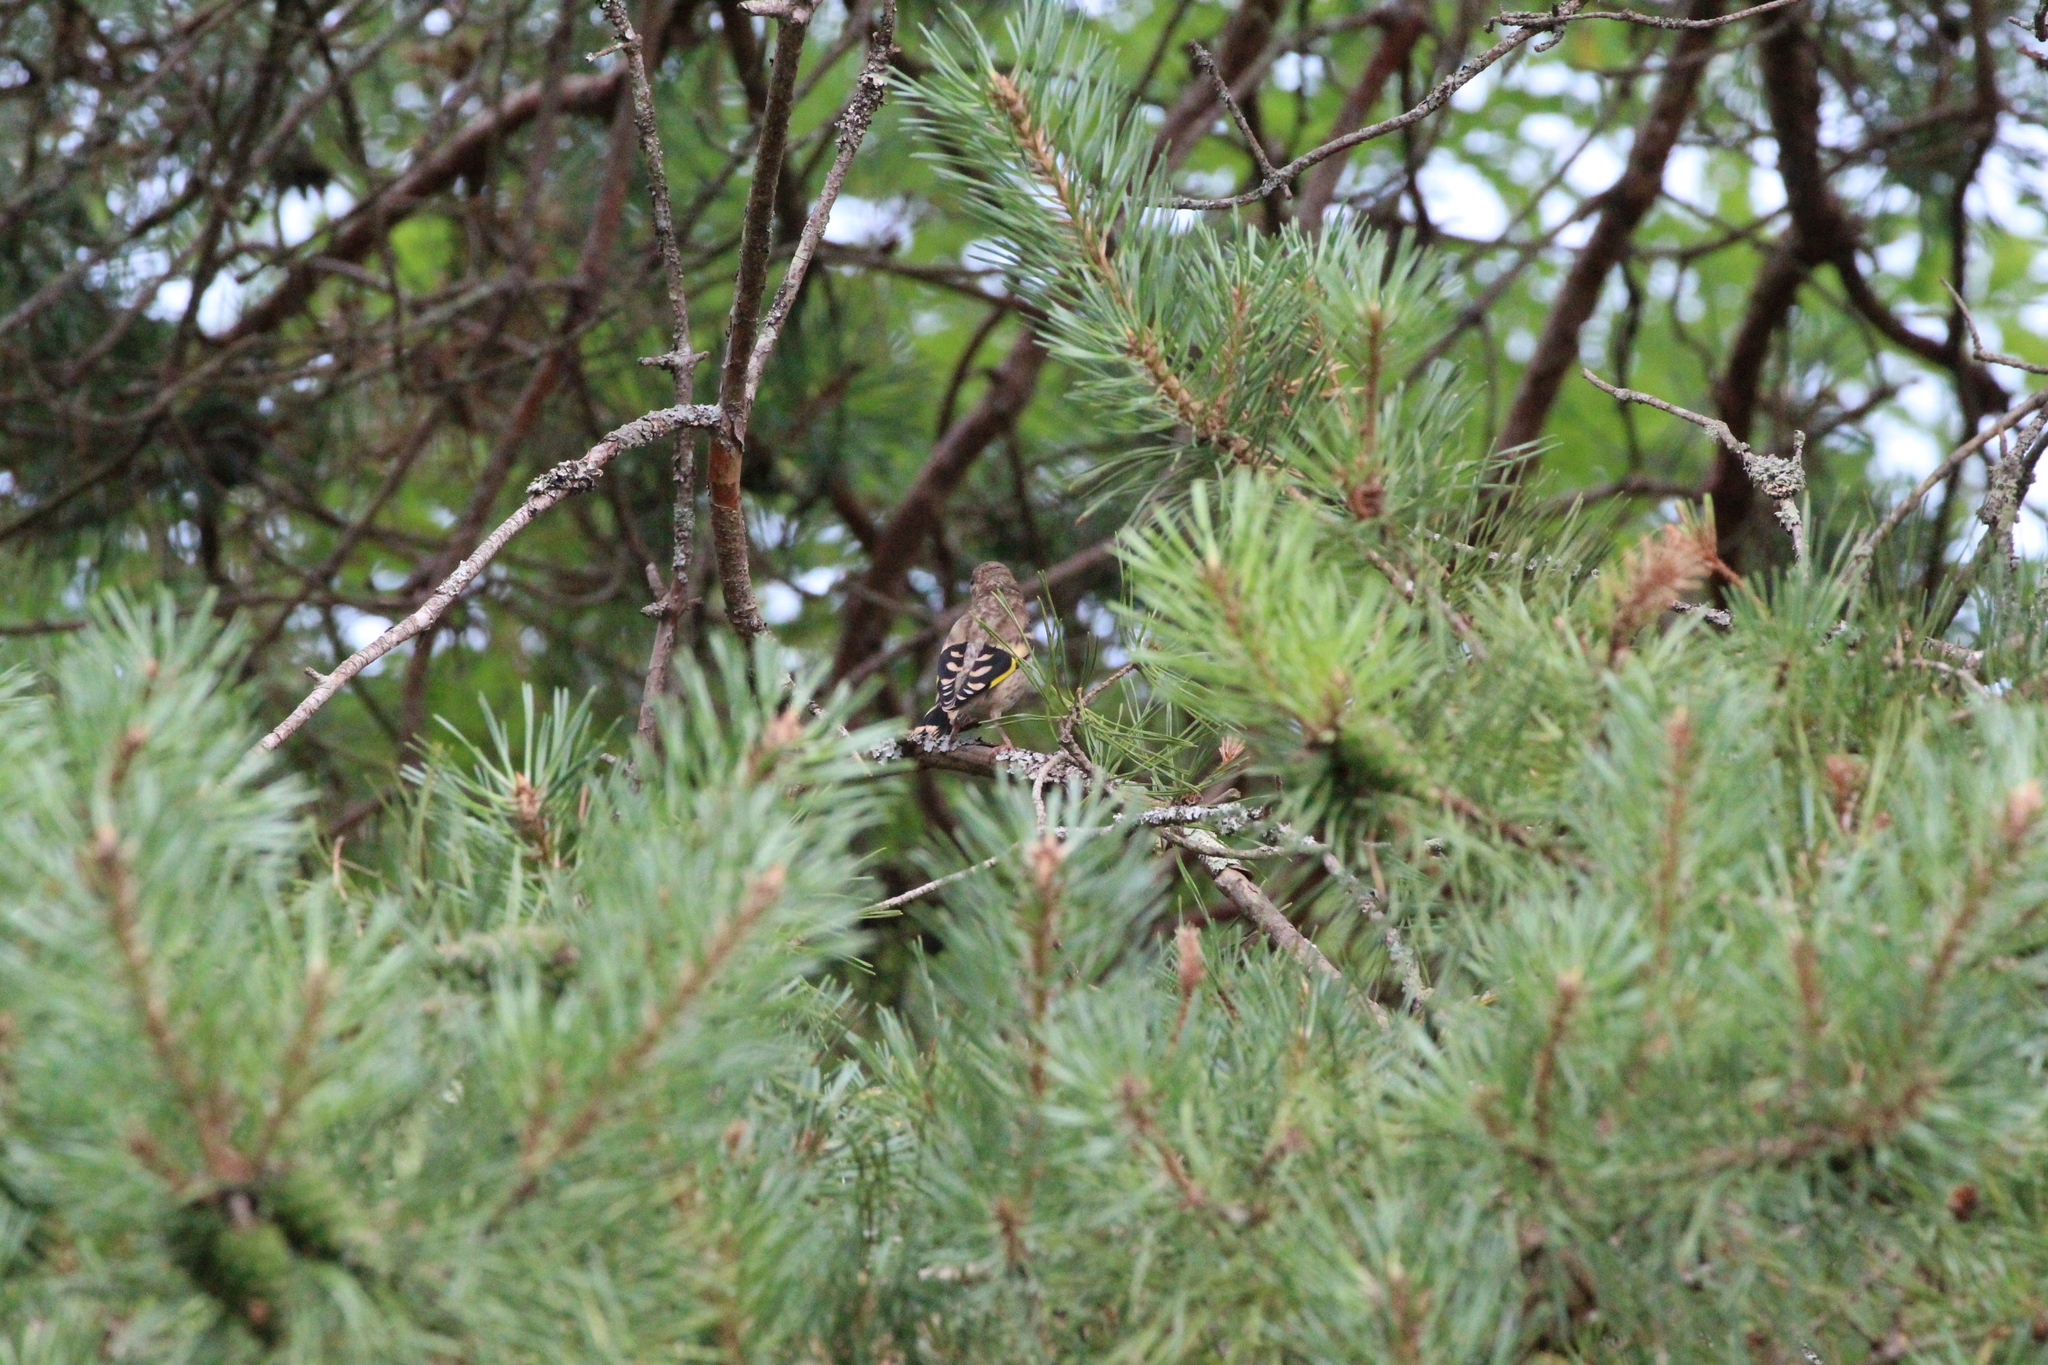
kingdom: Animalia
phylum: Chordata
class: Aves
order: Passeriformes
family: Fringillidae
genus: Carduelis
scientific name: Carduelis carduelis
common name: European goldfinch
